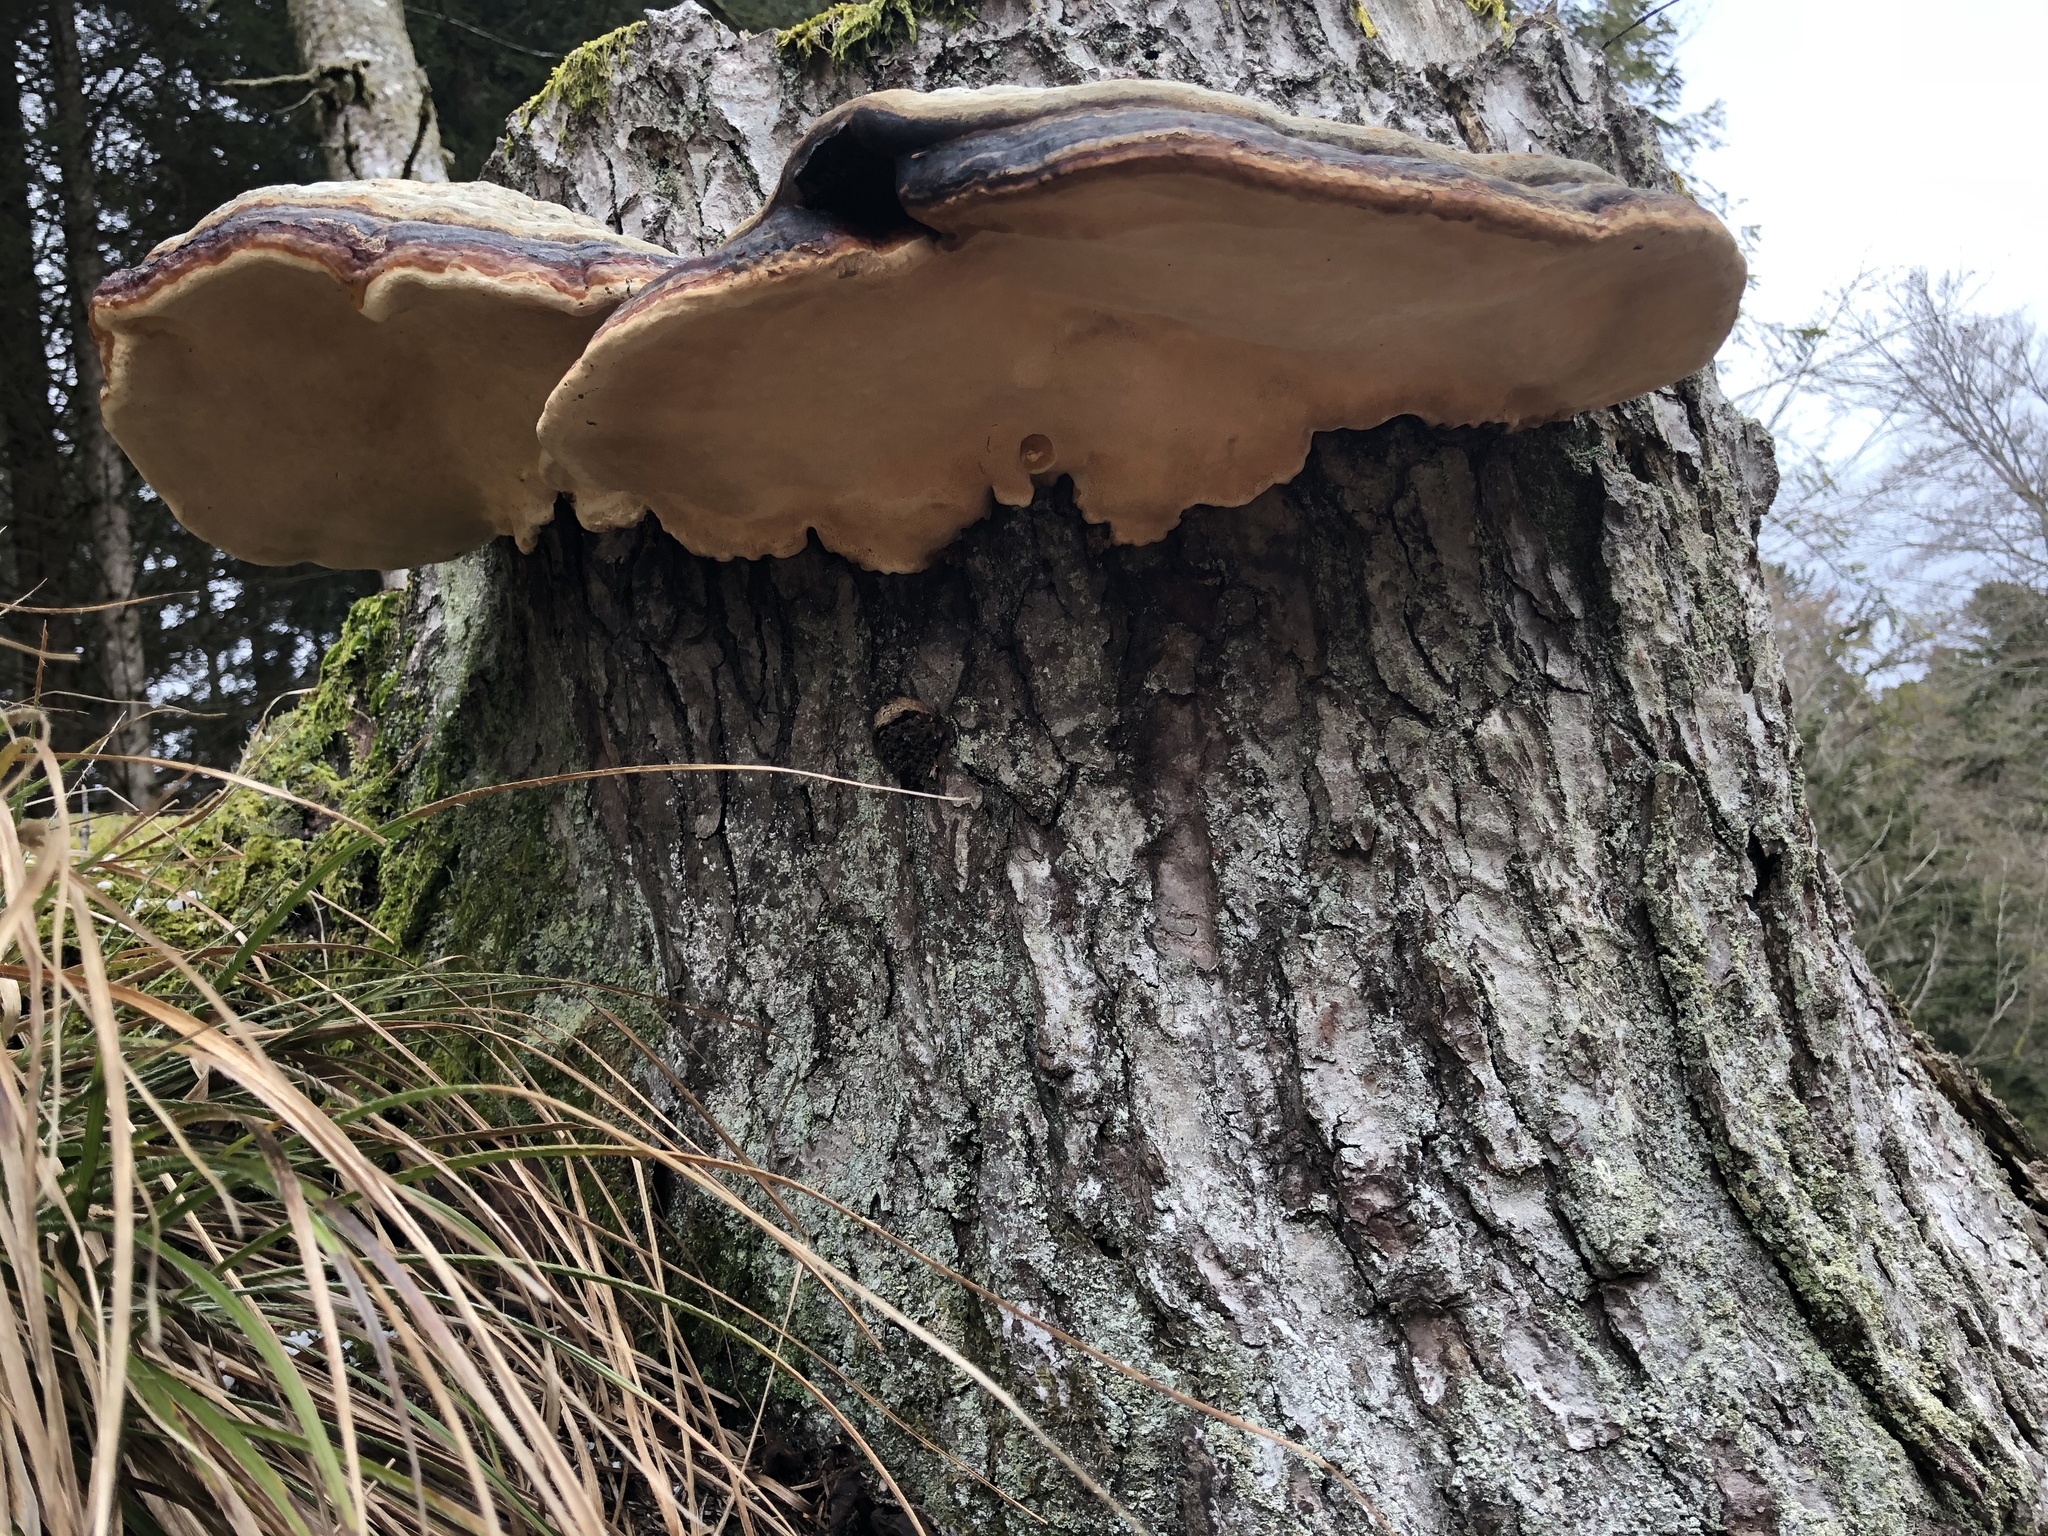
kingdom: Fungi
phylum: Basidiomycota
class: Agaricomycetes
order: Polyporales
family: Fomitopsidaceae
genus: Fomitopsis
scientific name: Fomitopsis pinicola
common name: Red-belted bracket
